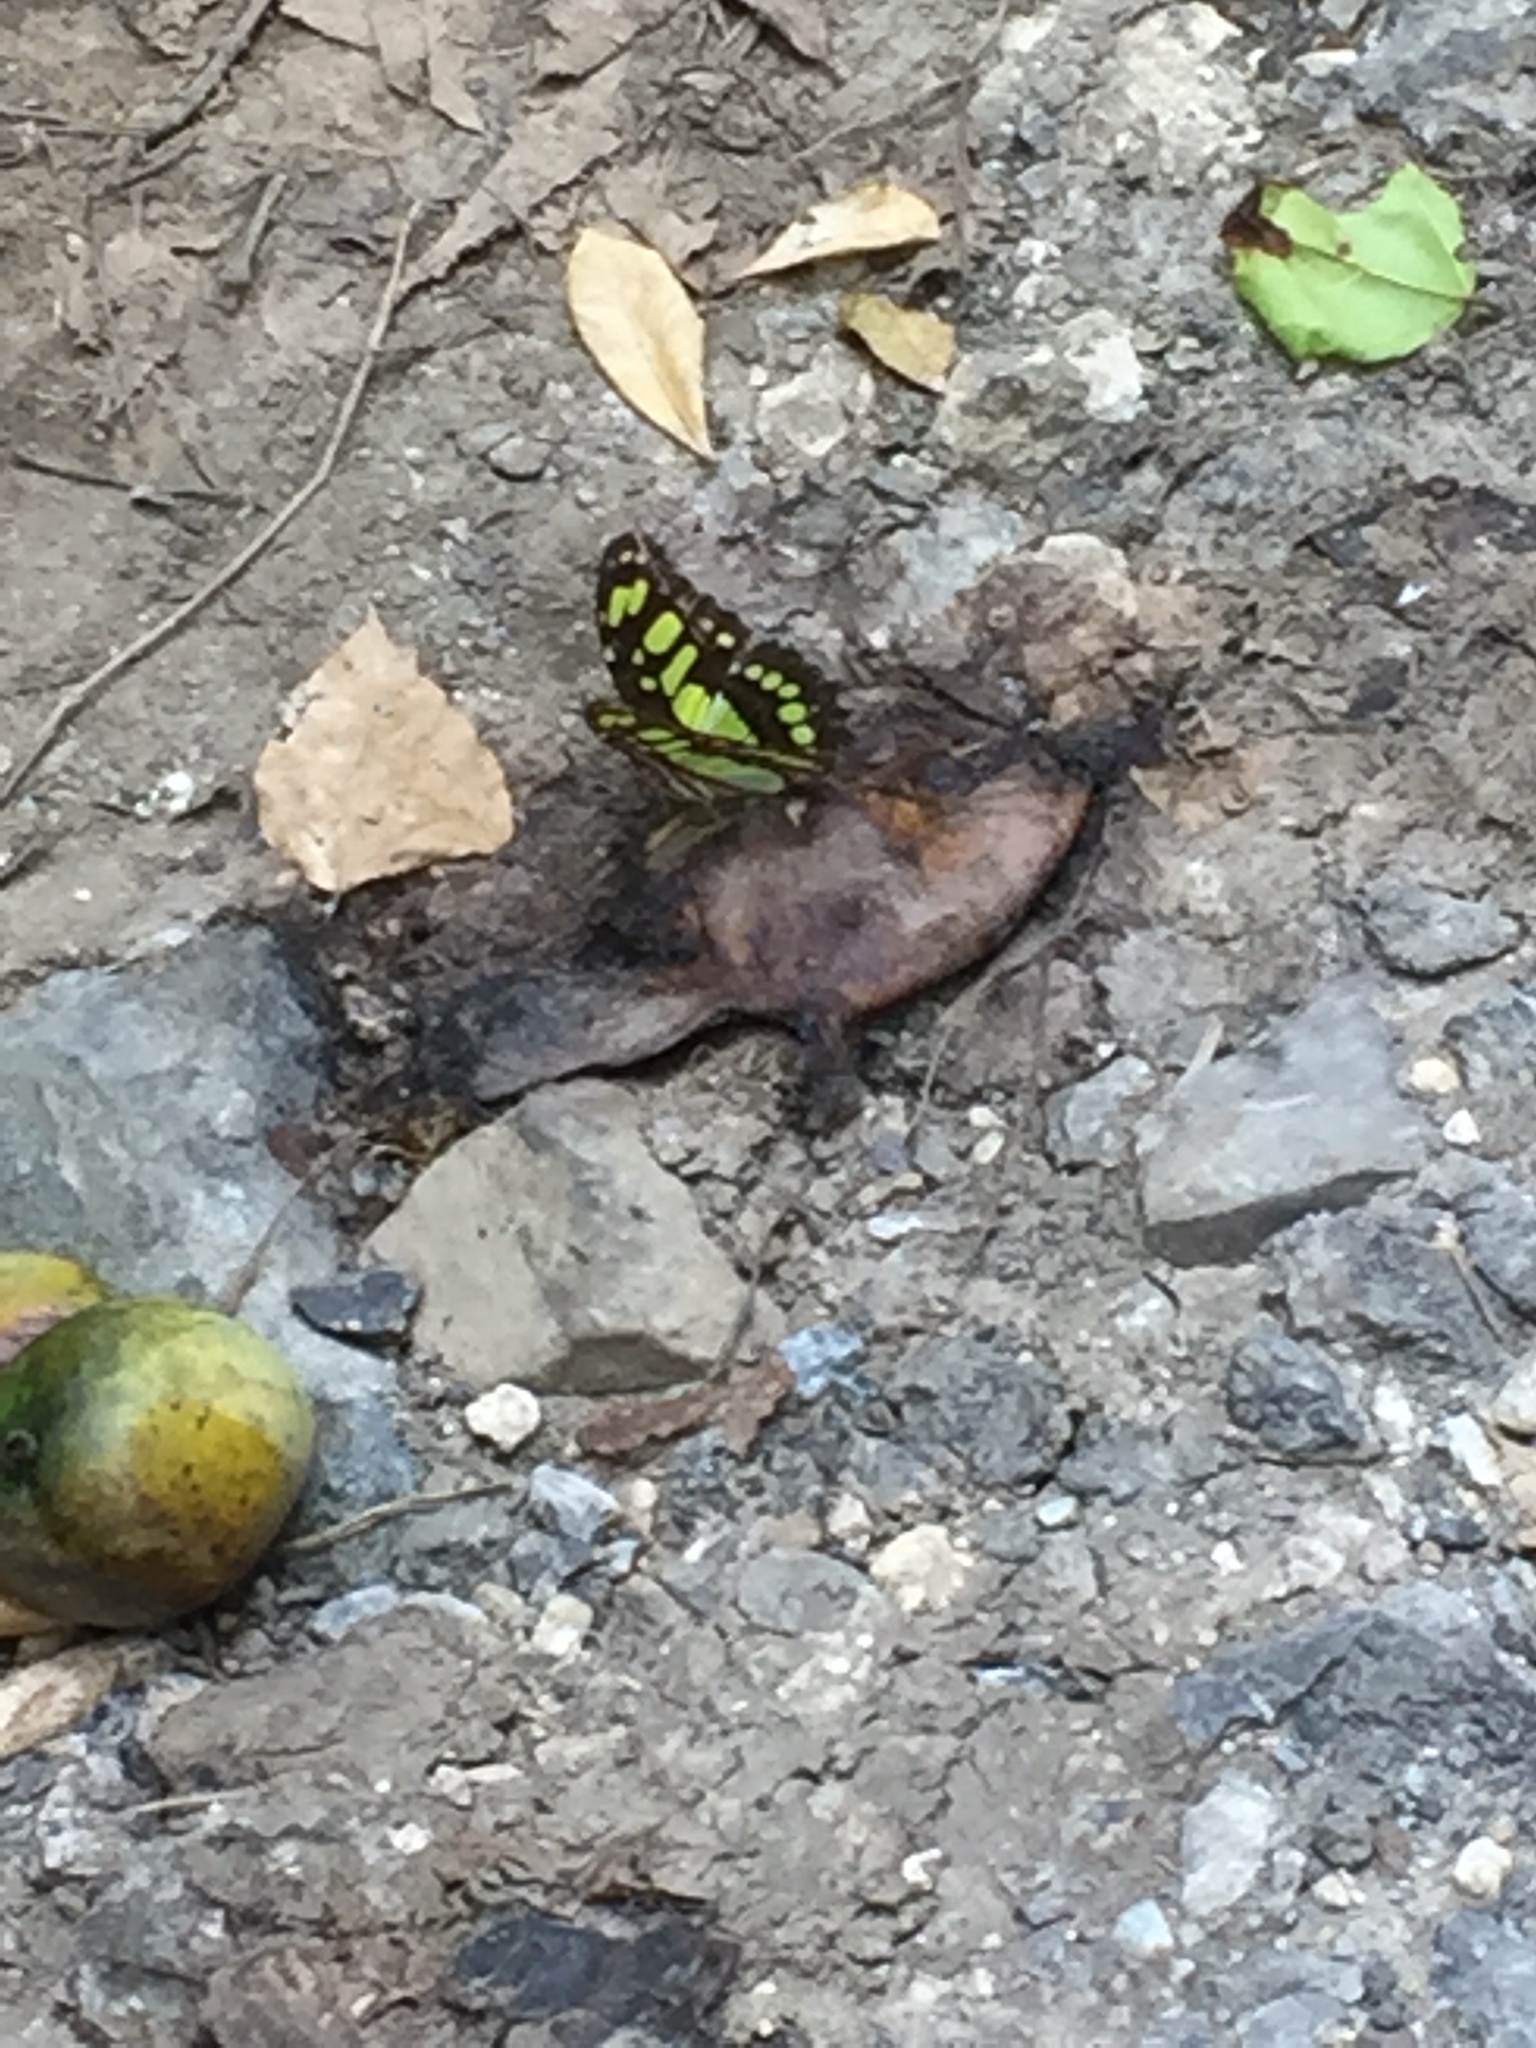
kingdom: Animalia
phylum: Arthropoda
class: Insecta
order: Lepidoptera
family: Nymphalidae
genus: Siproeta
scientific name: Siproeta stelenes
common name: Malachite
